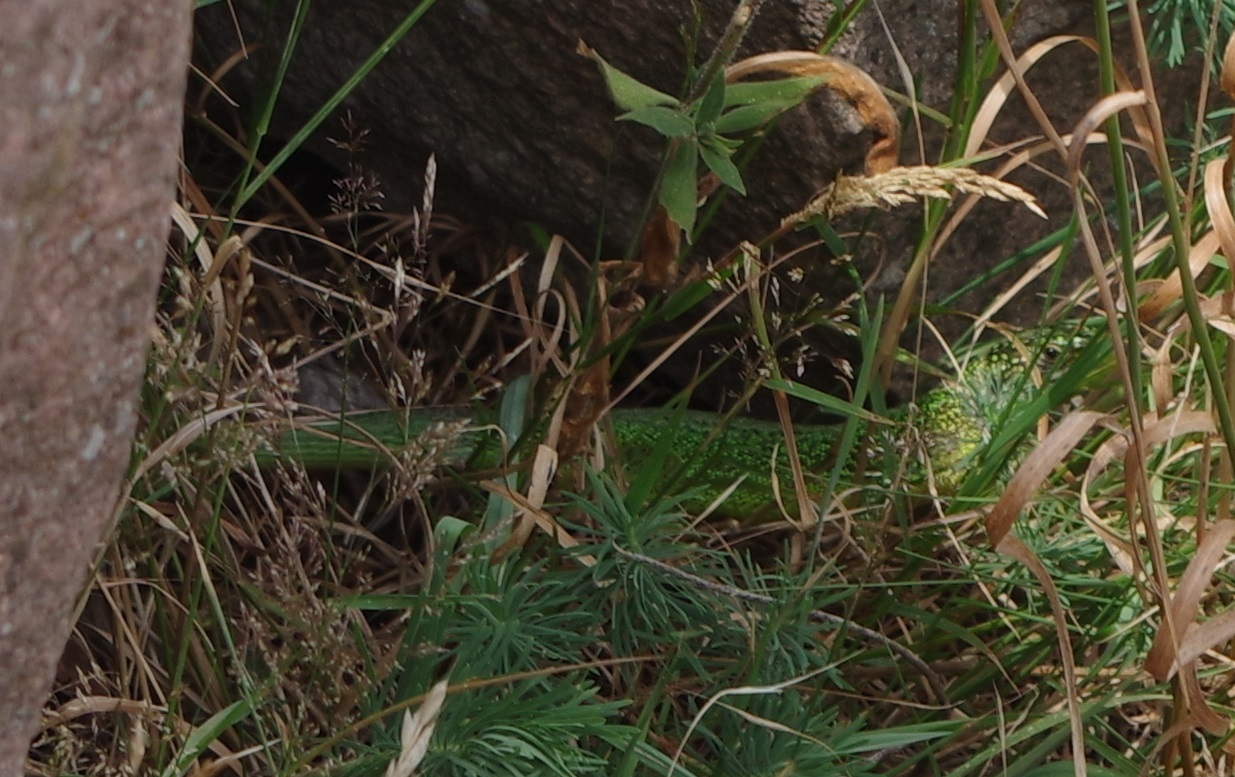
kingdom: Animalia
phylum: Chordata
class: Squamata
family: Lacertidae
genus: Lacerta
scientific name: Lacerta bilineata
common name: Western green lizard
